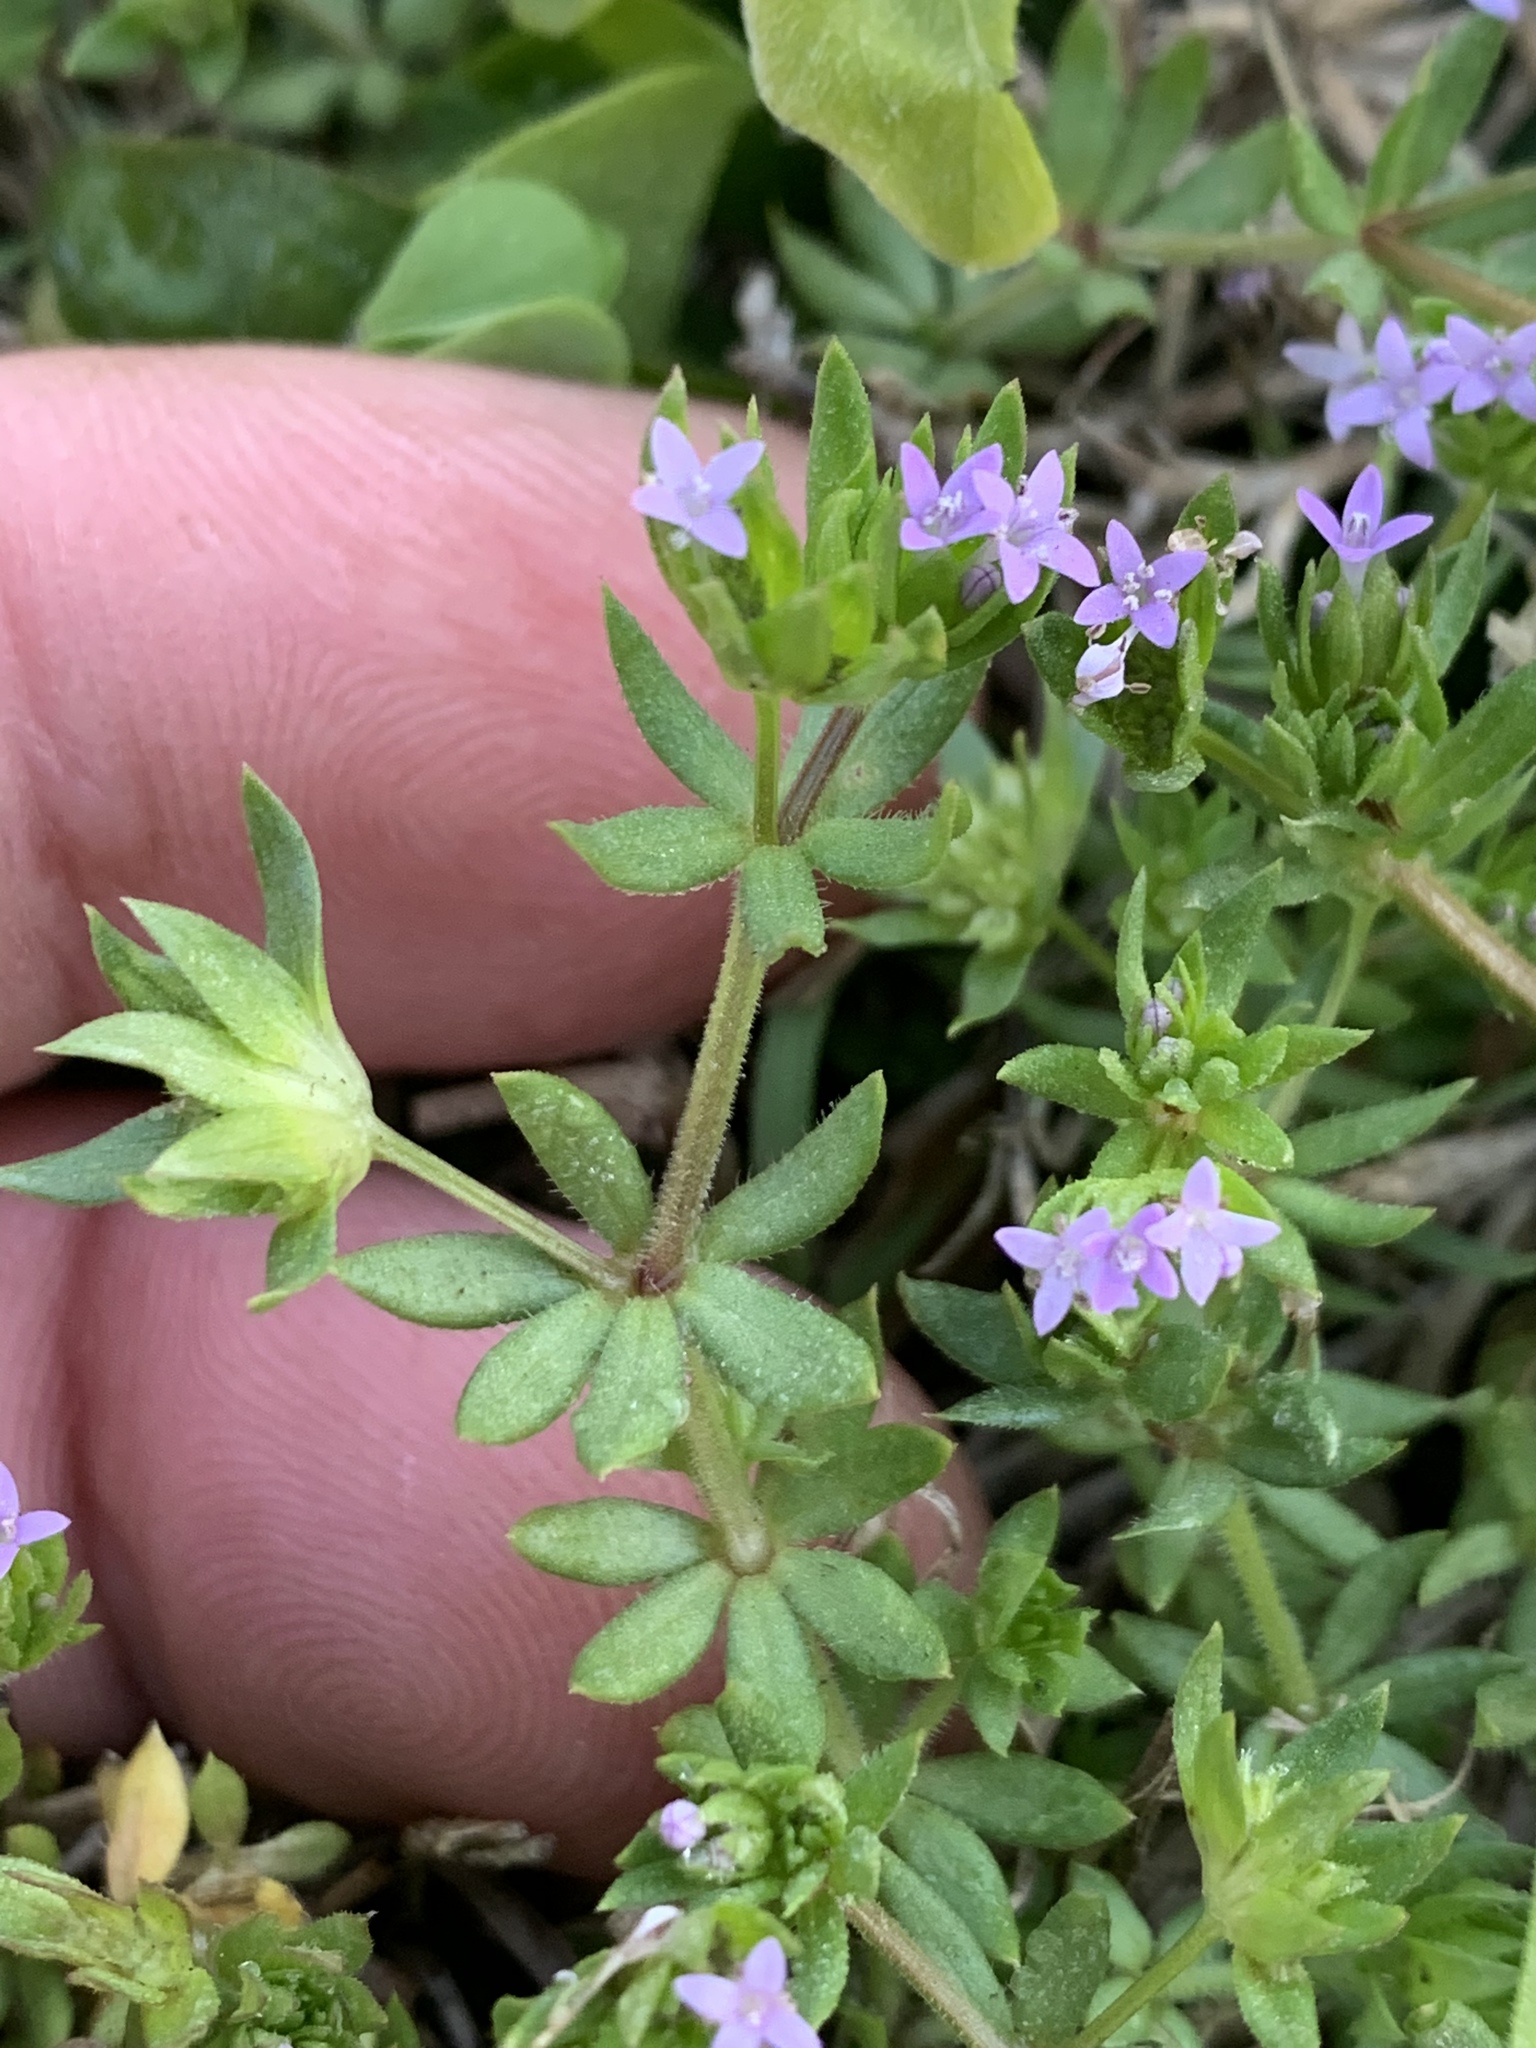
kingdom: Plantae
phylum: Tracheophyta
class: Magnoliopsida
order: Gentianales
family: Rubiaceae
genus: Sherardia
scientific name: Sherardia arvensis
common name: Field madder
